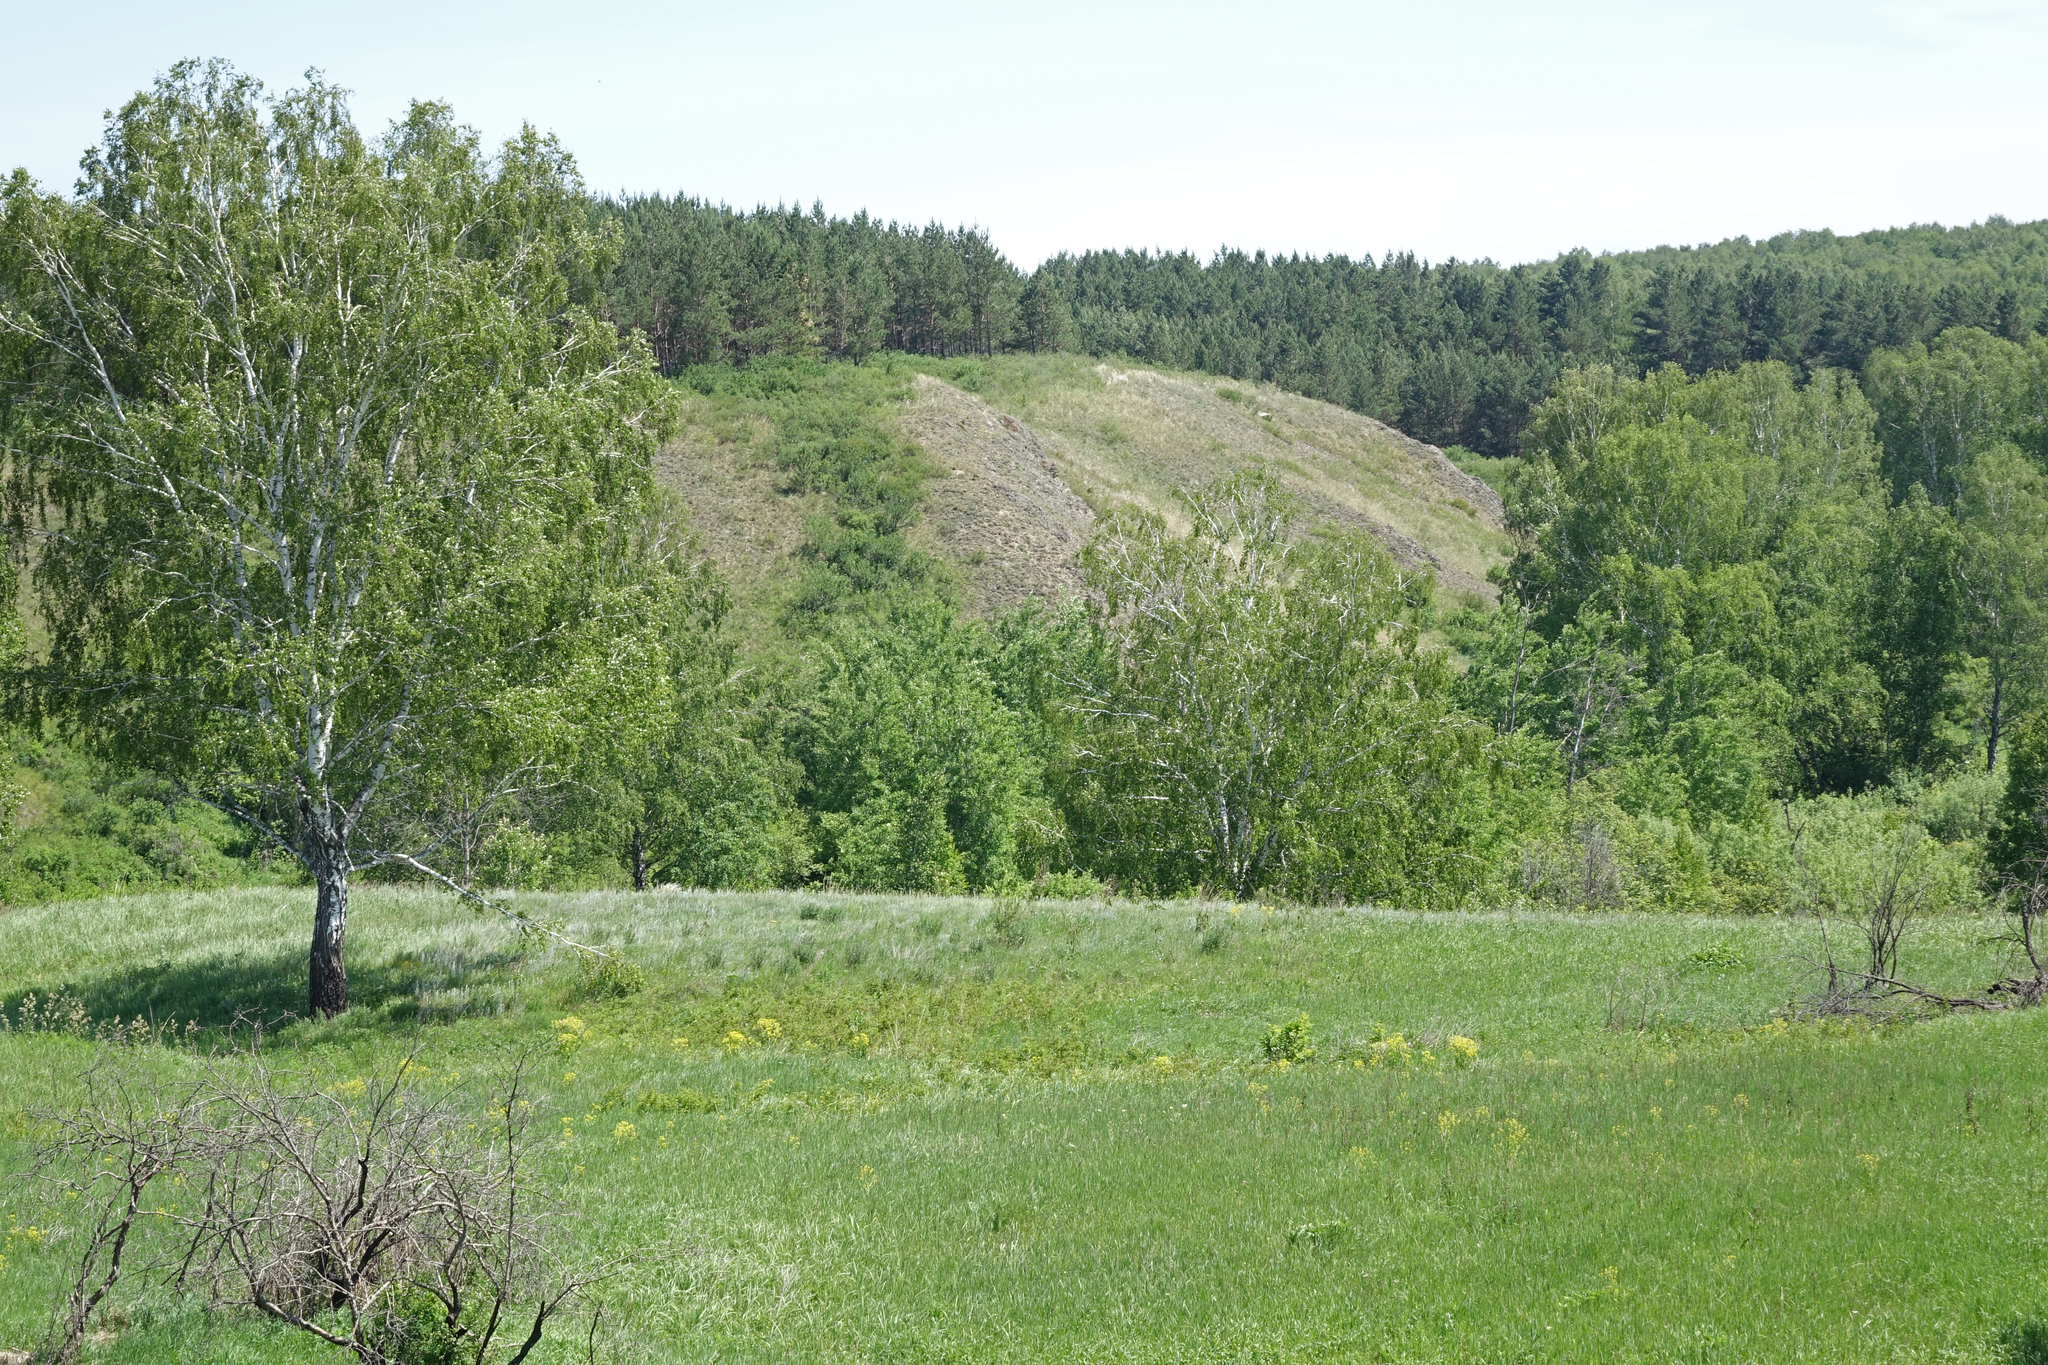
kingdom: Plantae
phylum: Tracheophyta
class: Magnoliopsida
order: Fagales
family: Betulaceae
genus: Betula
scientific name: Betula pendula
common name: Silver birch
